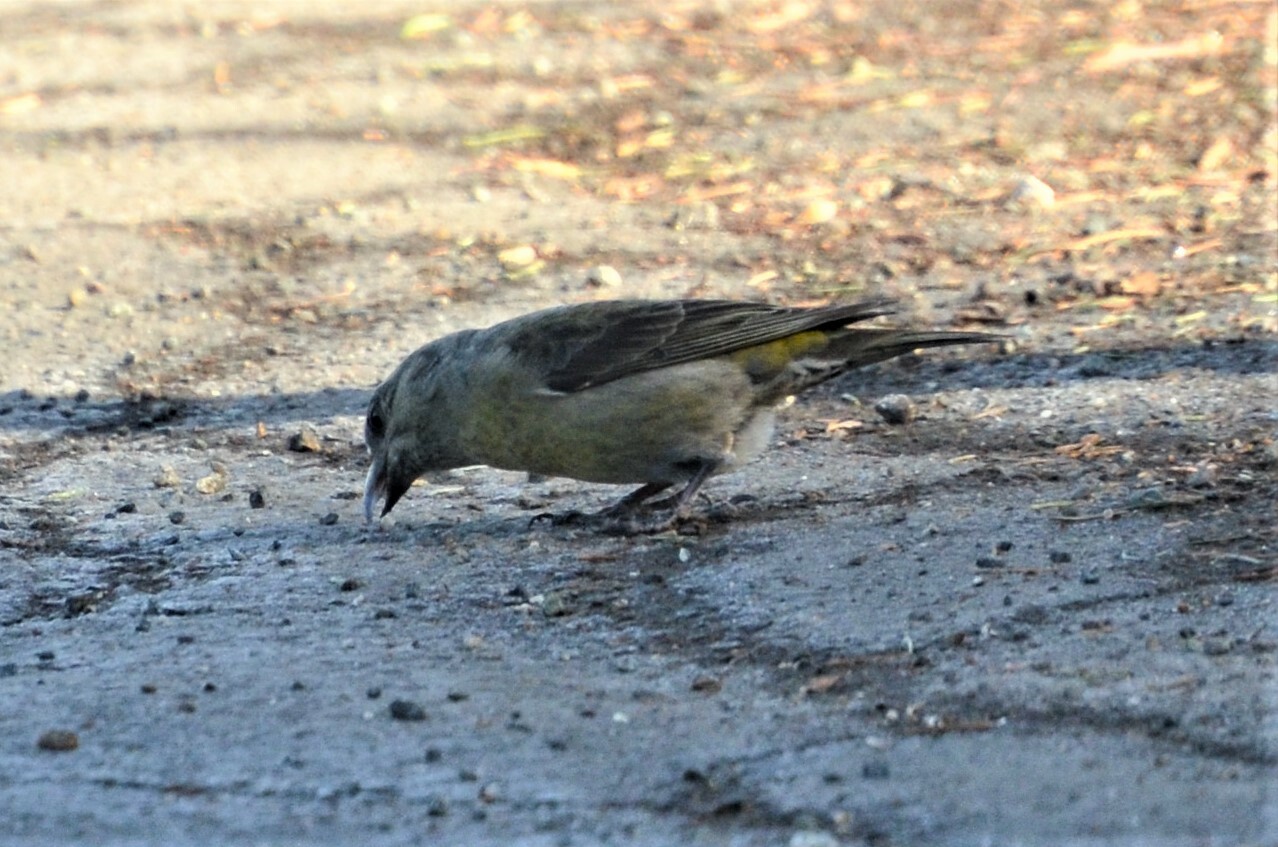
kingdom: Animalia
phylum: Chordata
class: Aves
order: Passeriformes
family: Fringillidae
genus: Loxia
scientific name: Loxia curvirostra
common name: Red crossbill
